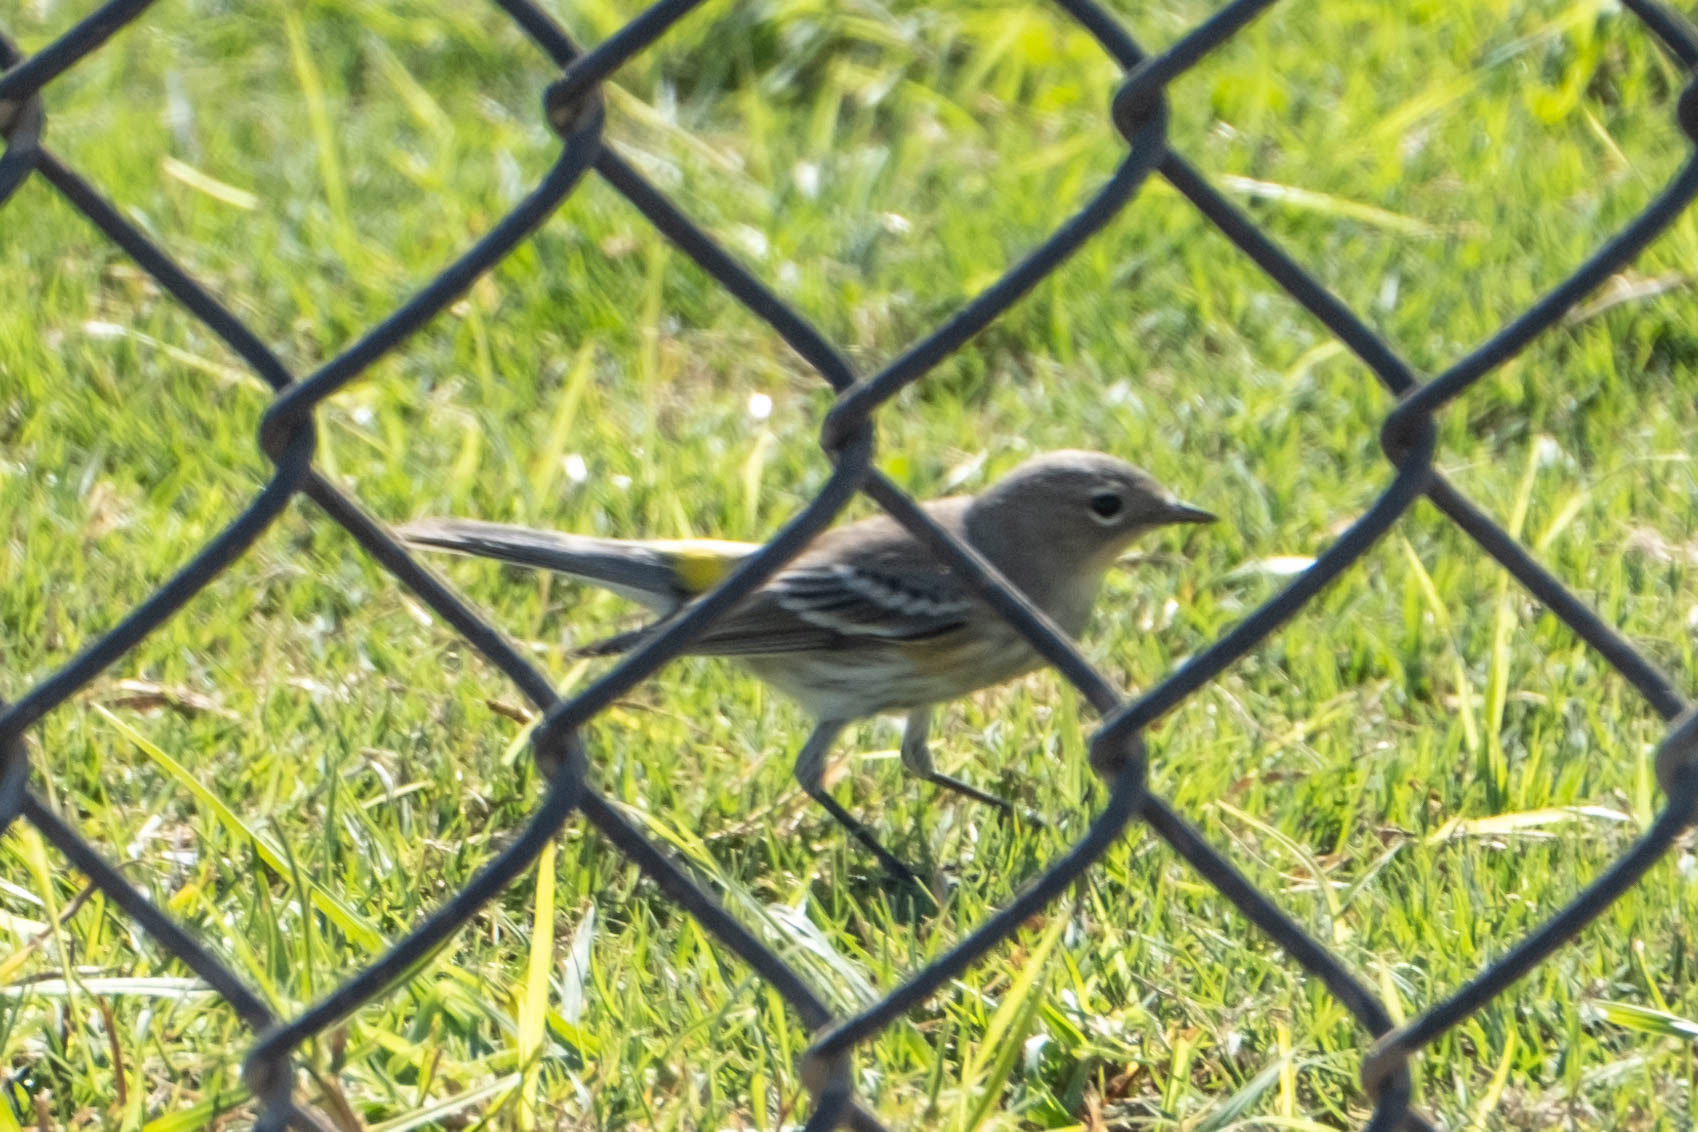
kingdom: Animalia
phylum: Chordata
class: Aves
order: Passeriformes
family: Parulidae
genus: Setophaga
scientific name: Setophaga coronata
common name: Myrtle warbler
